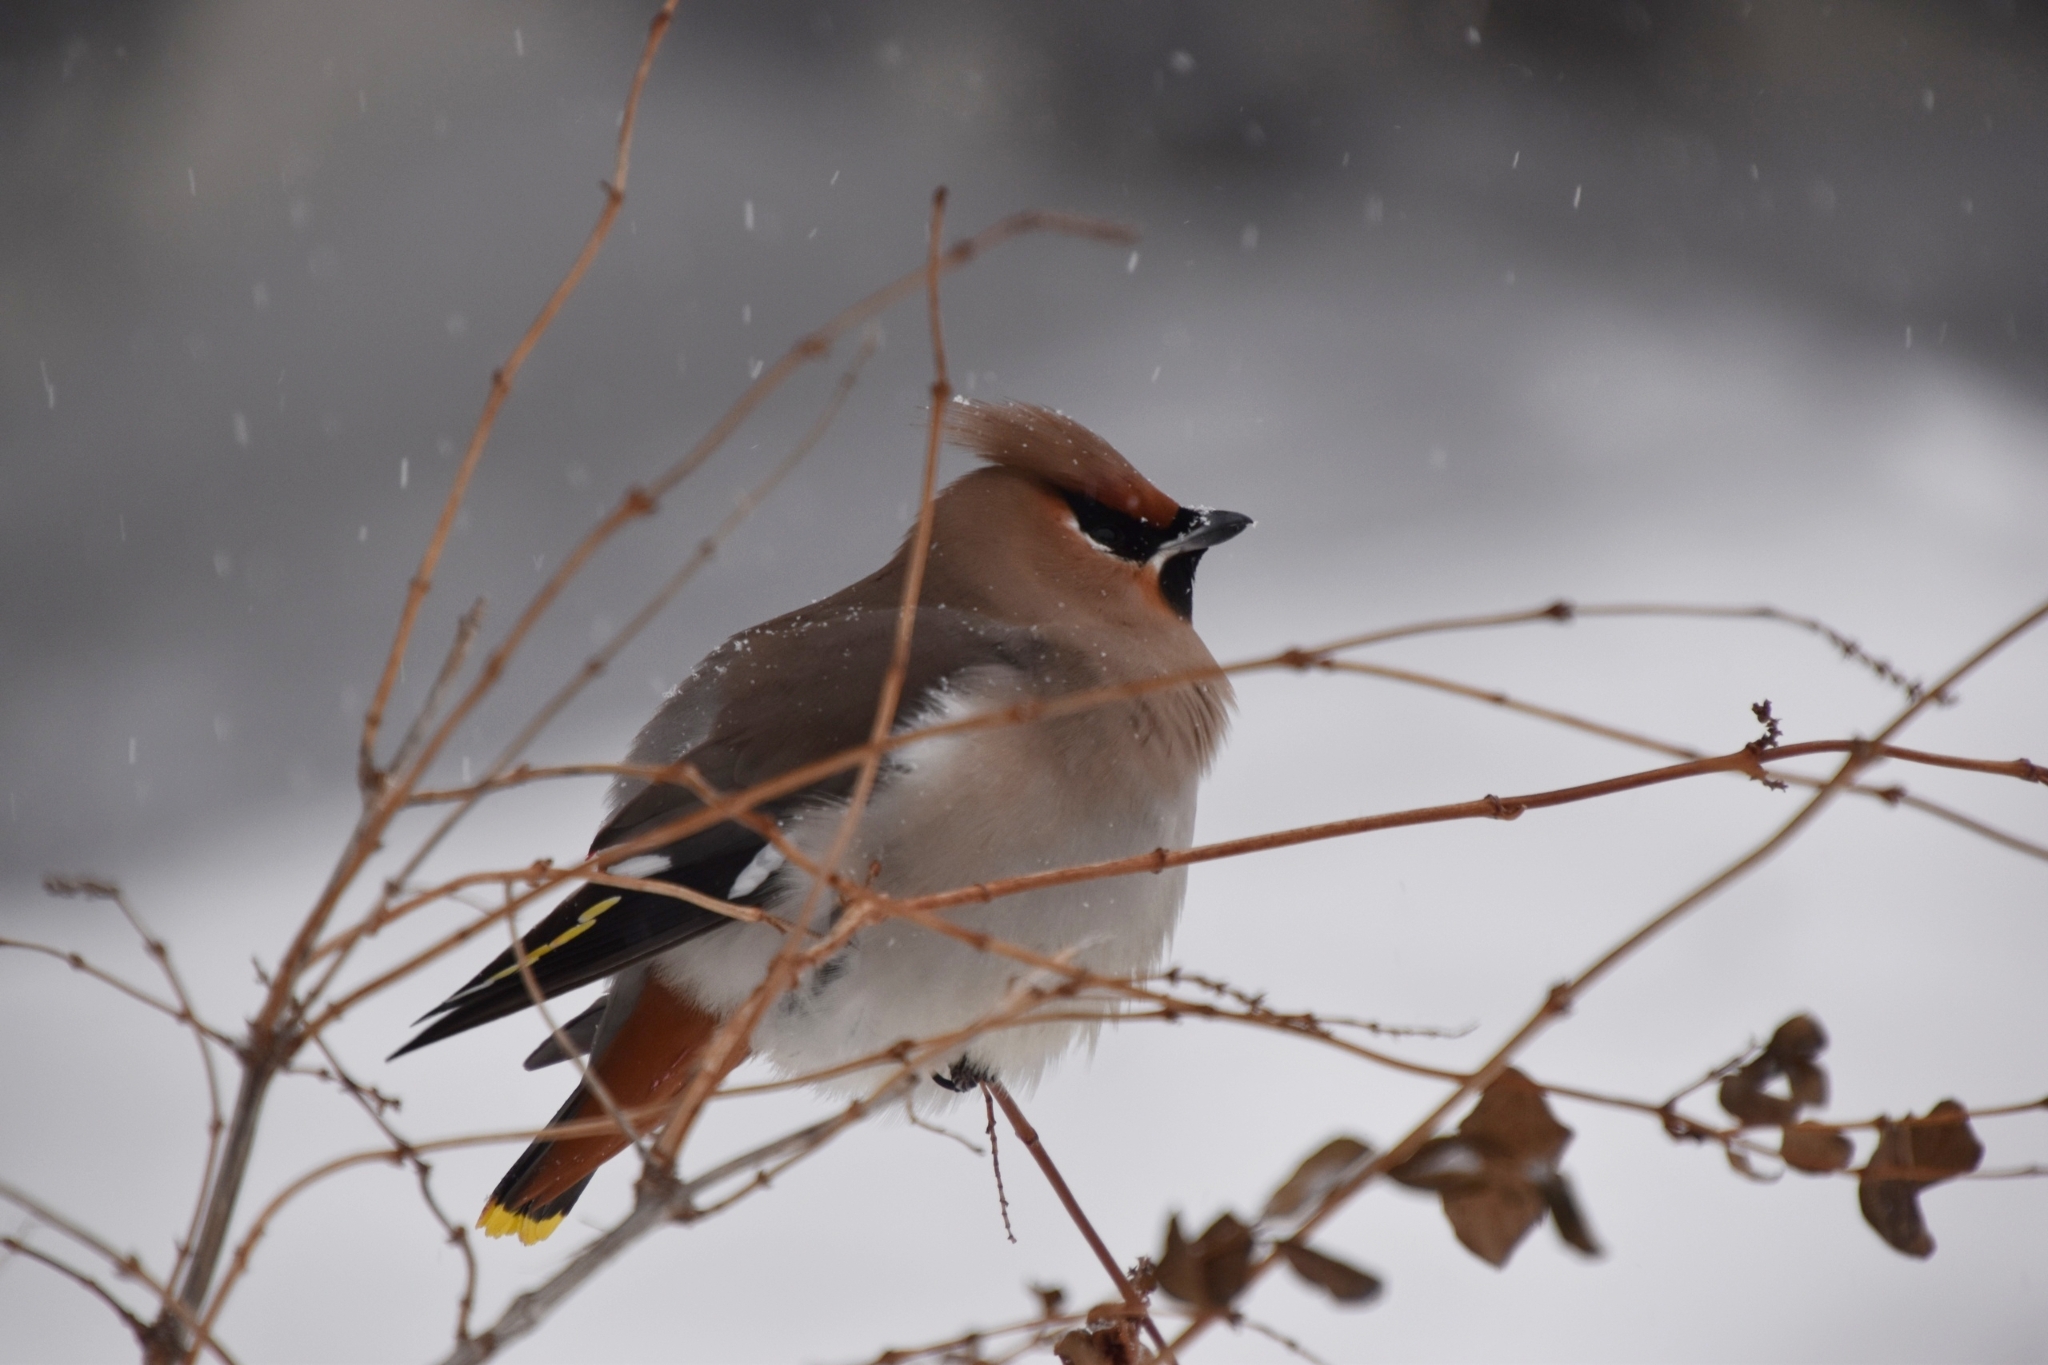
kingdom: Animalia
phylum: Chordata
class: Aves
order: Passeriformes
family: Bombycillidae
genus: Bombycilla
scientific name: Bombycilla garrulus
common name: Bohemian waxwing
